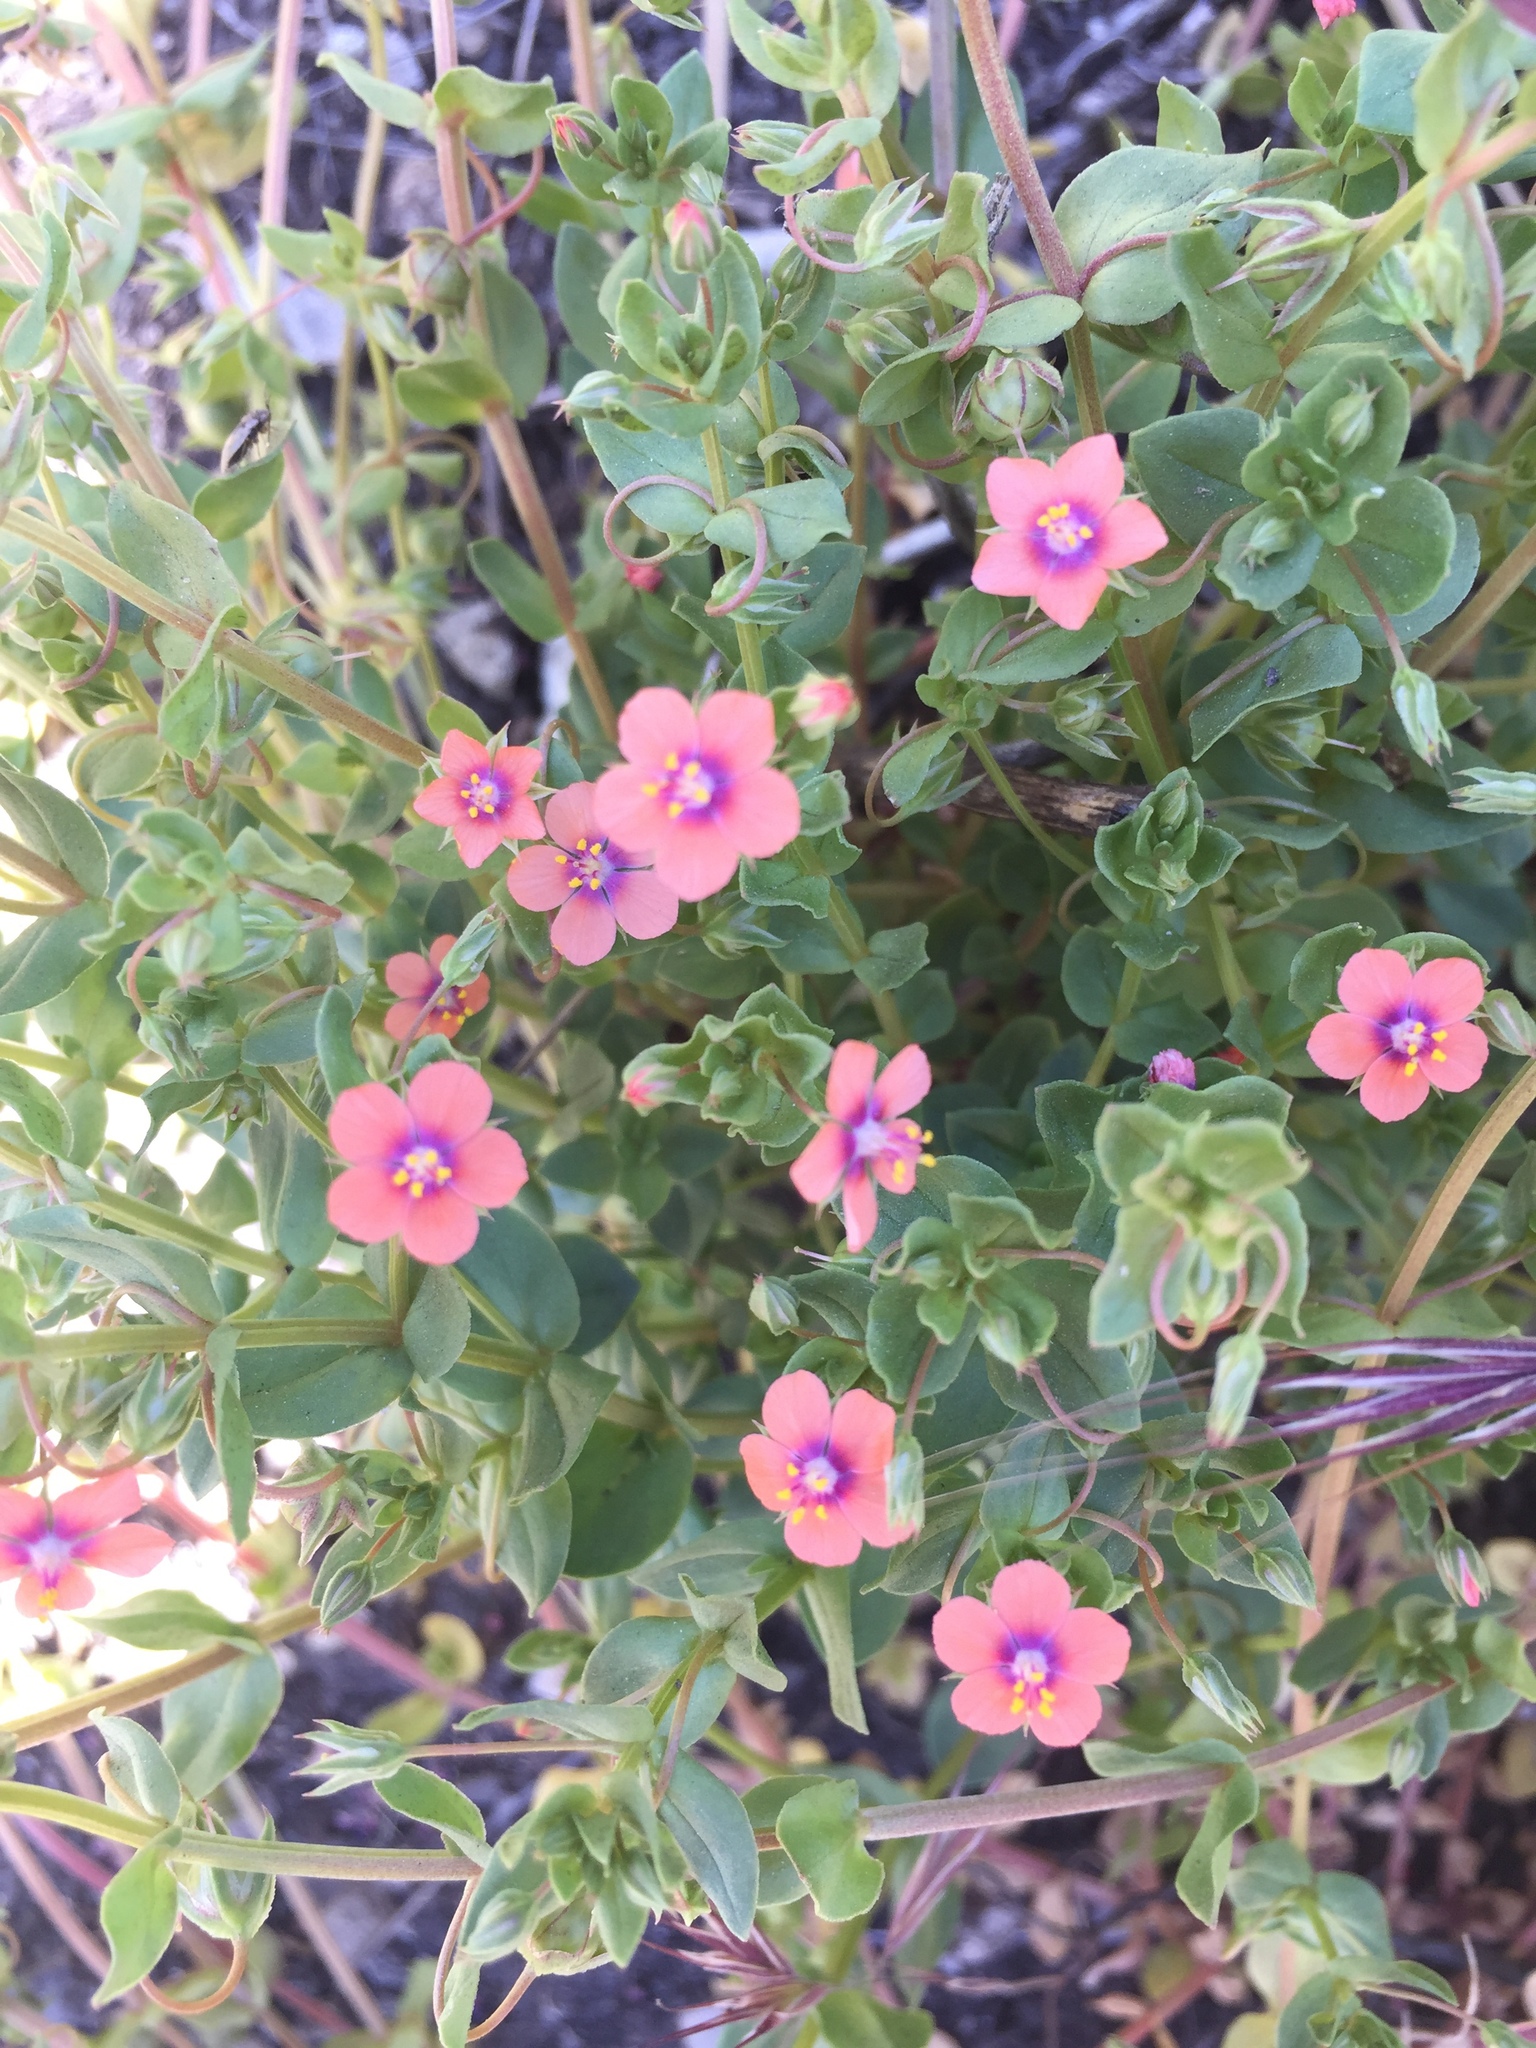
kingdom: Plantae
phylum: Tracheophyta
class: Magnoliopsida
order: Ericales
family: Primulaceae
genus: Lysimachia
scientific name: Lysimachia arvensis
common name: Scarlet pimpernel
